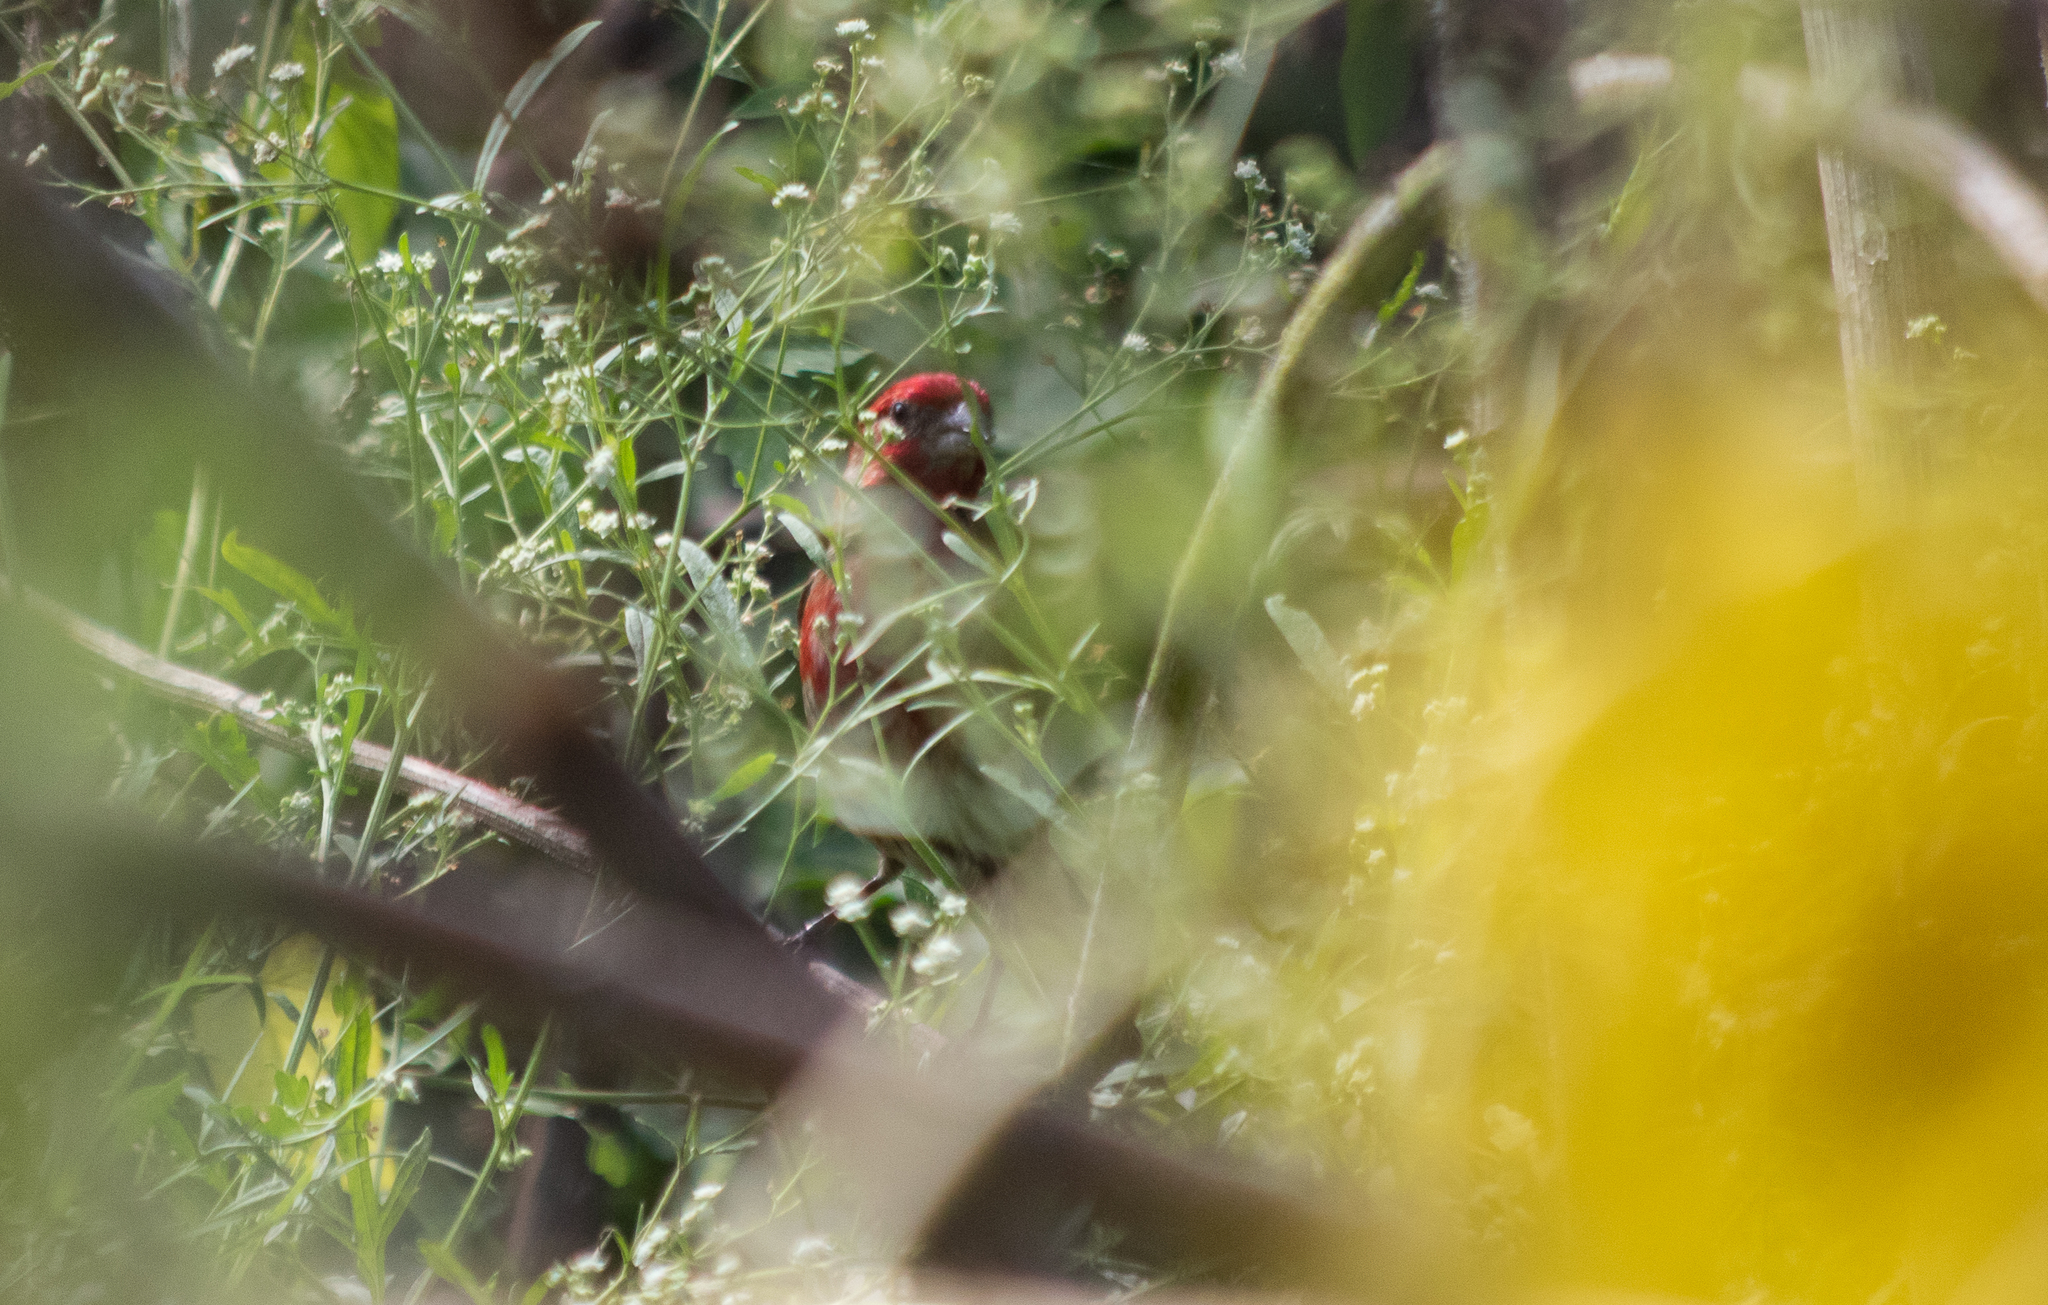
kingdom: Animalia
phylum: Chordata
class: Aves
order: Passeriformes
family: Fringillidae
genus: Haemorhous
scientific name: Haemorhous mexicanus
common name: House finch
